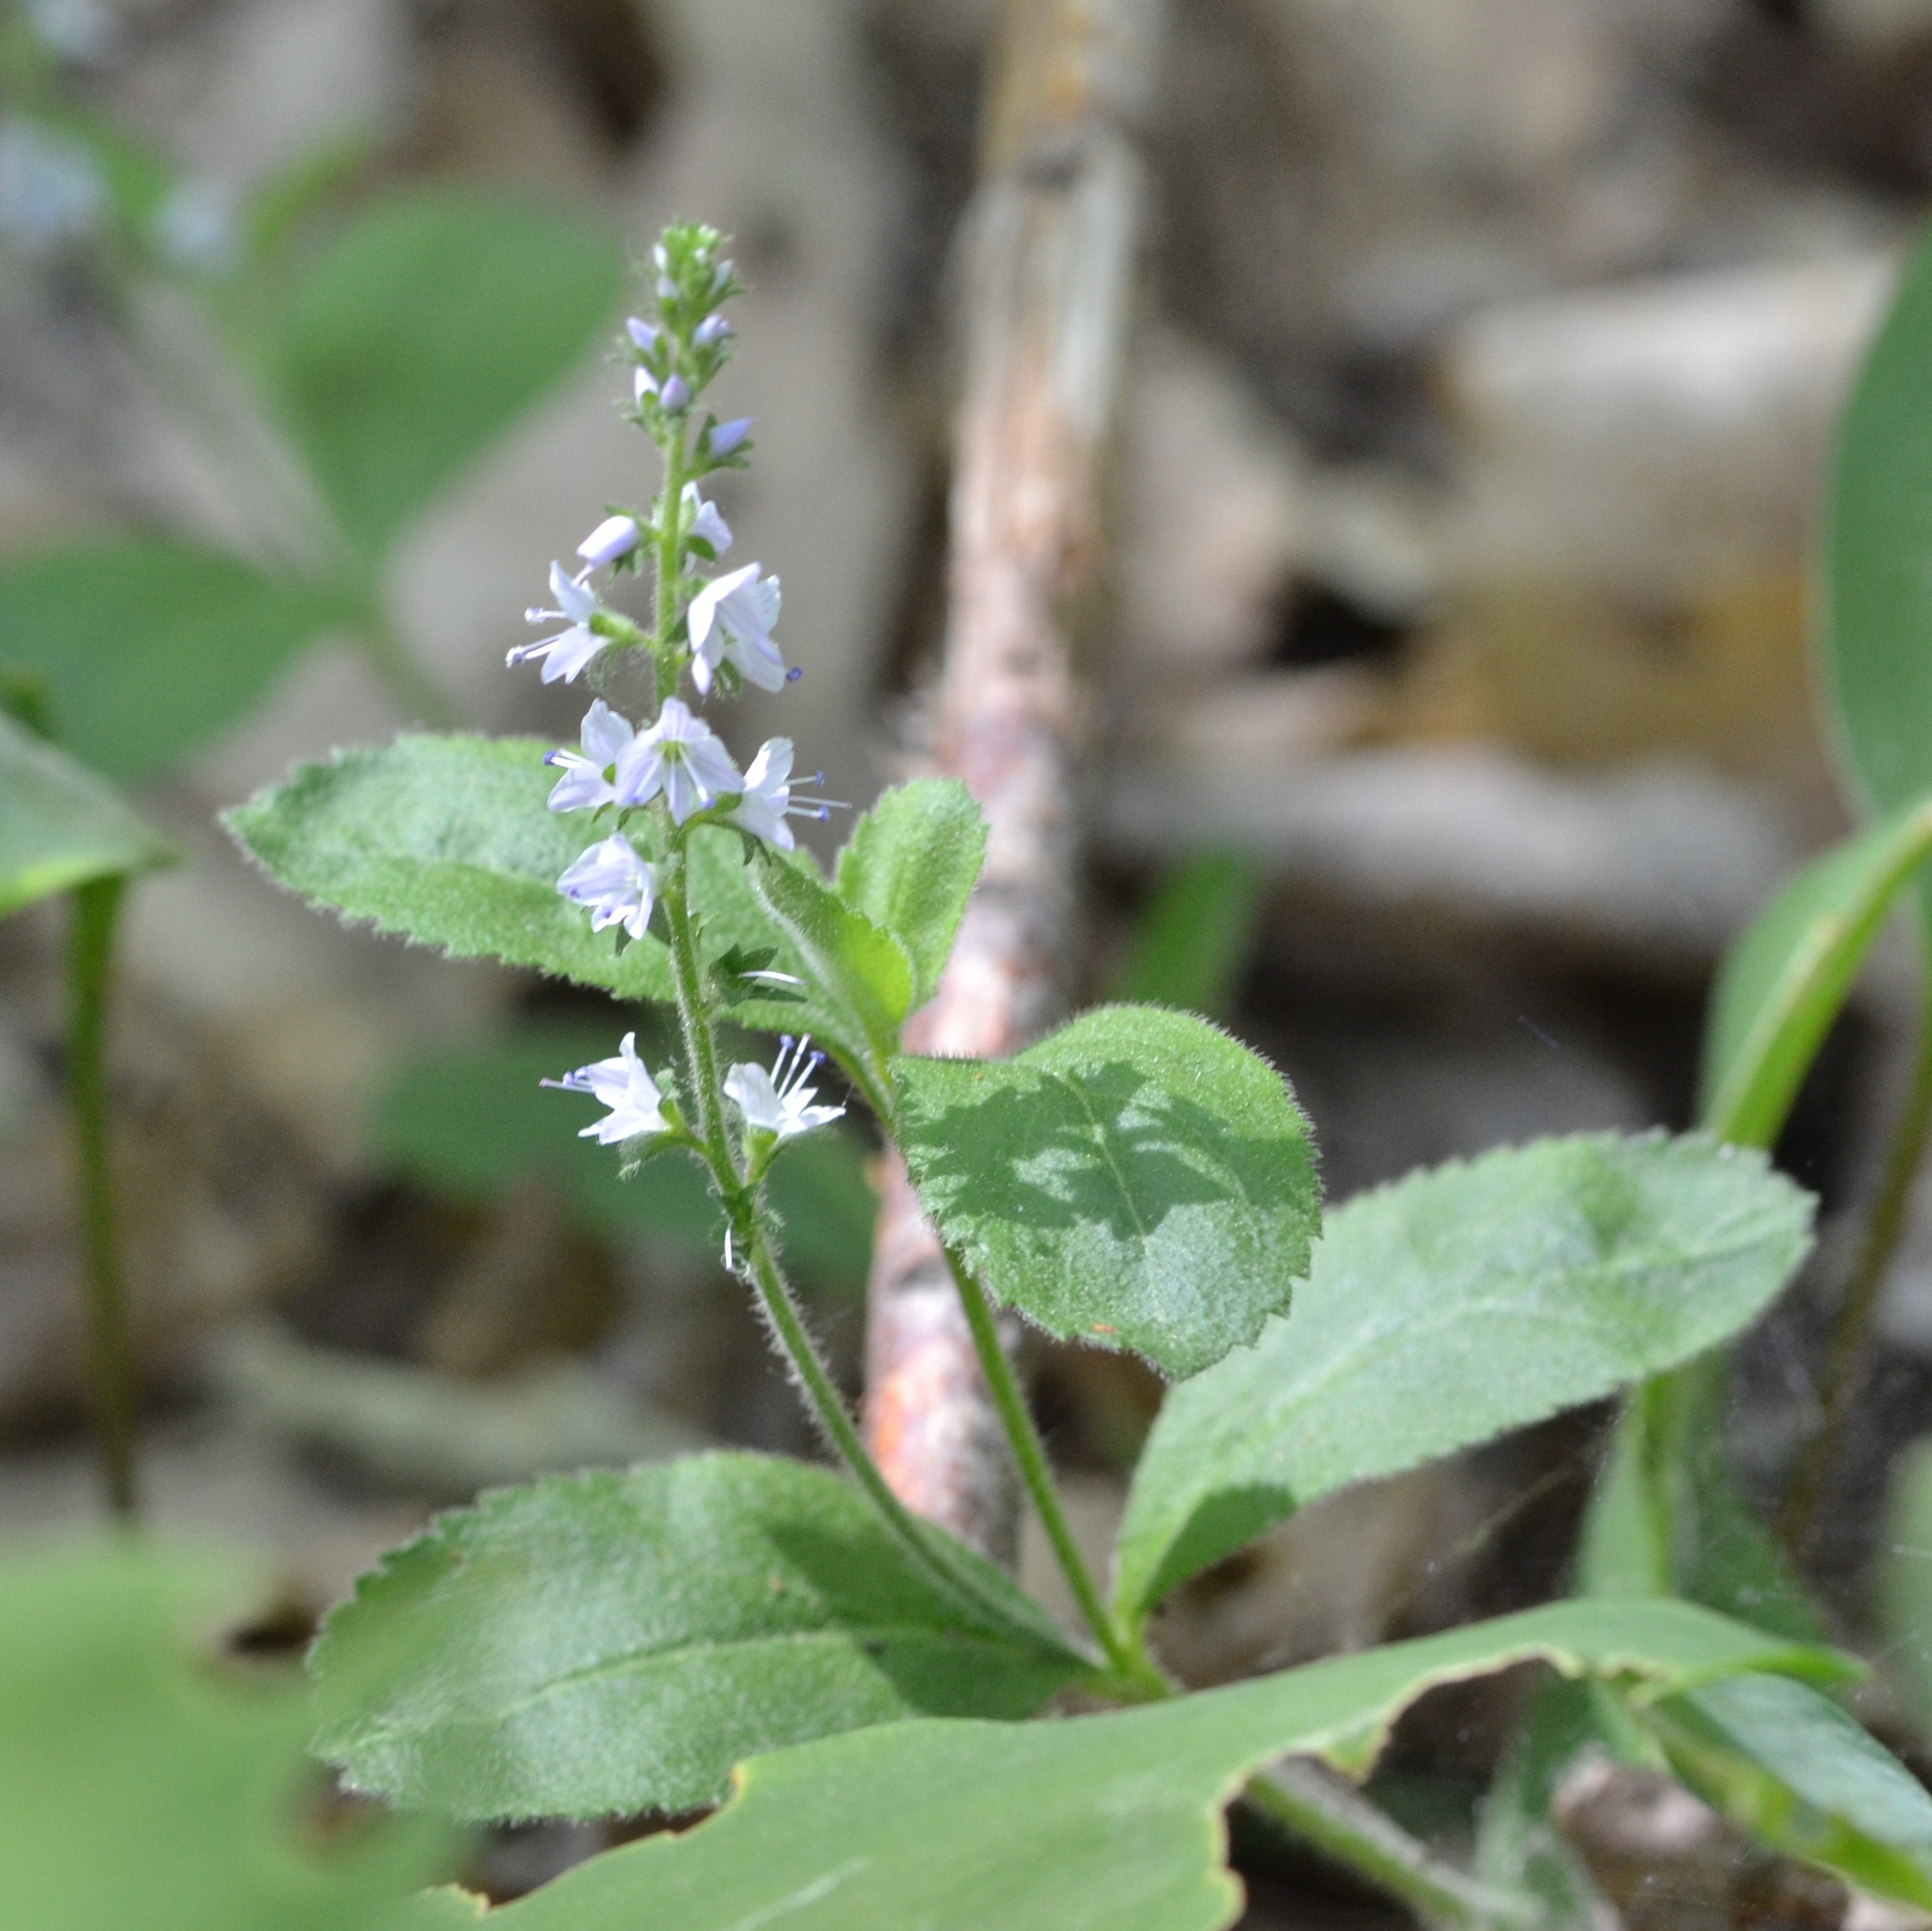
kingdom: Plantae
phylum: Tracheophyta
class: Magnoliopsida
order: Lamiales
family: Plantaginaceae
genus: Veronica
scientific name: Veronica officinalis
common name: Common speedwell
